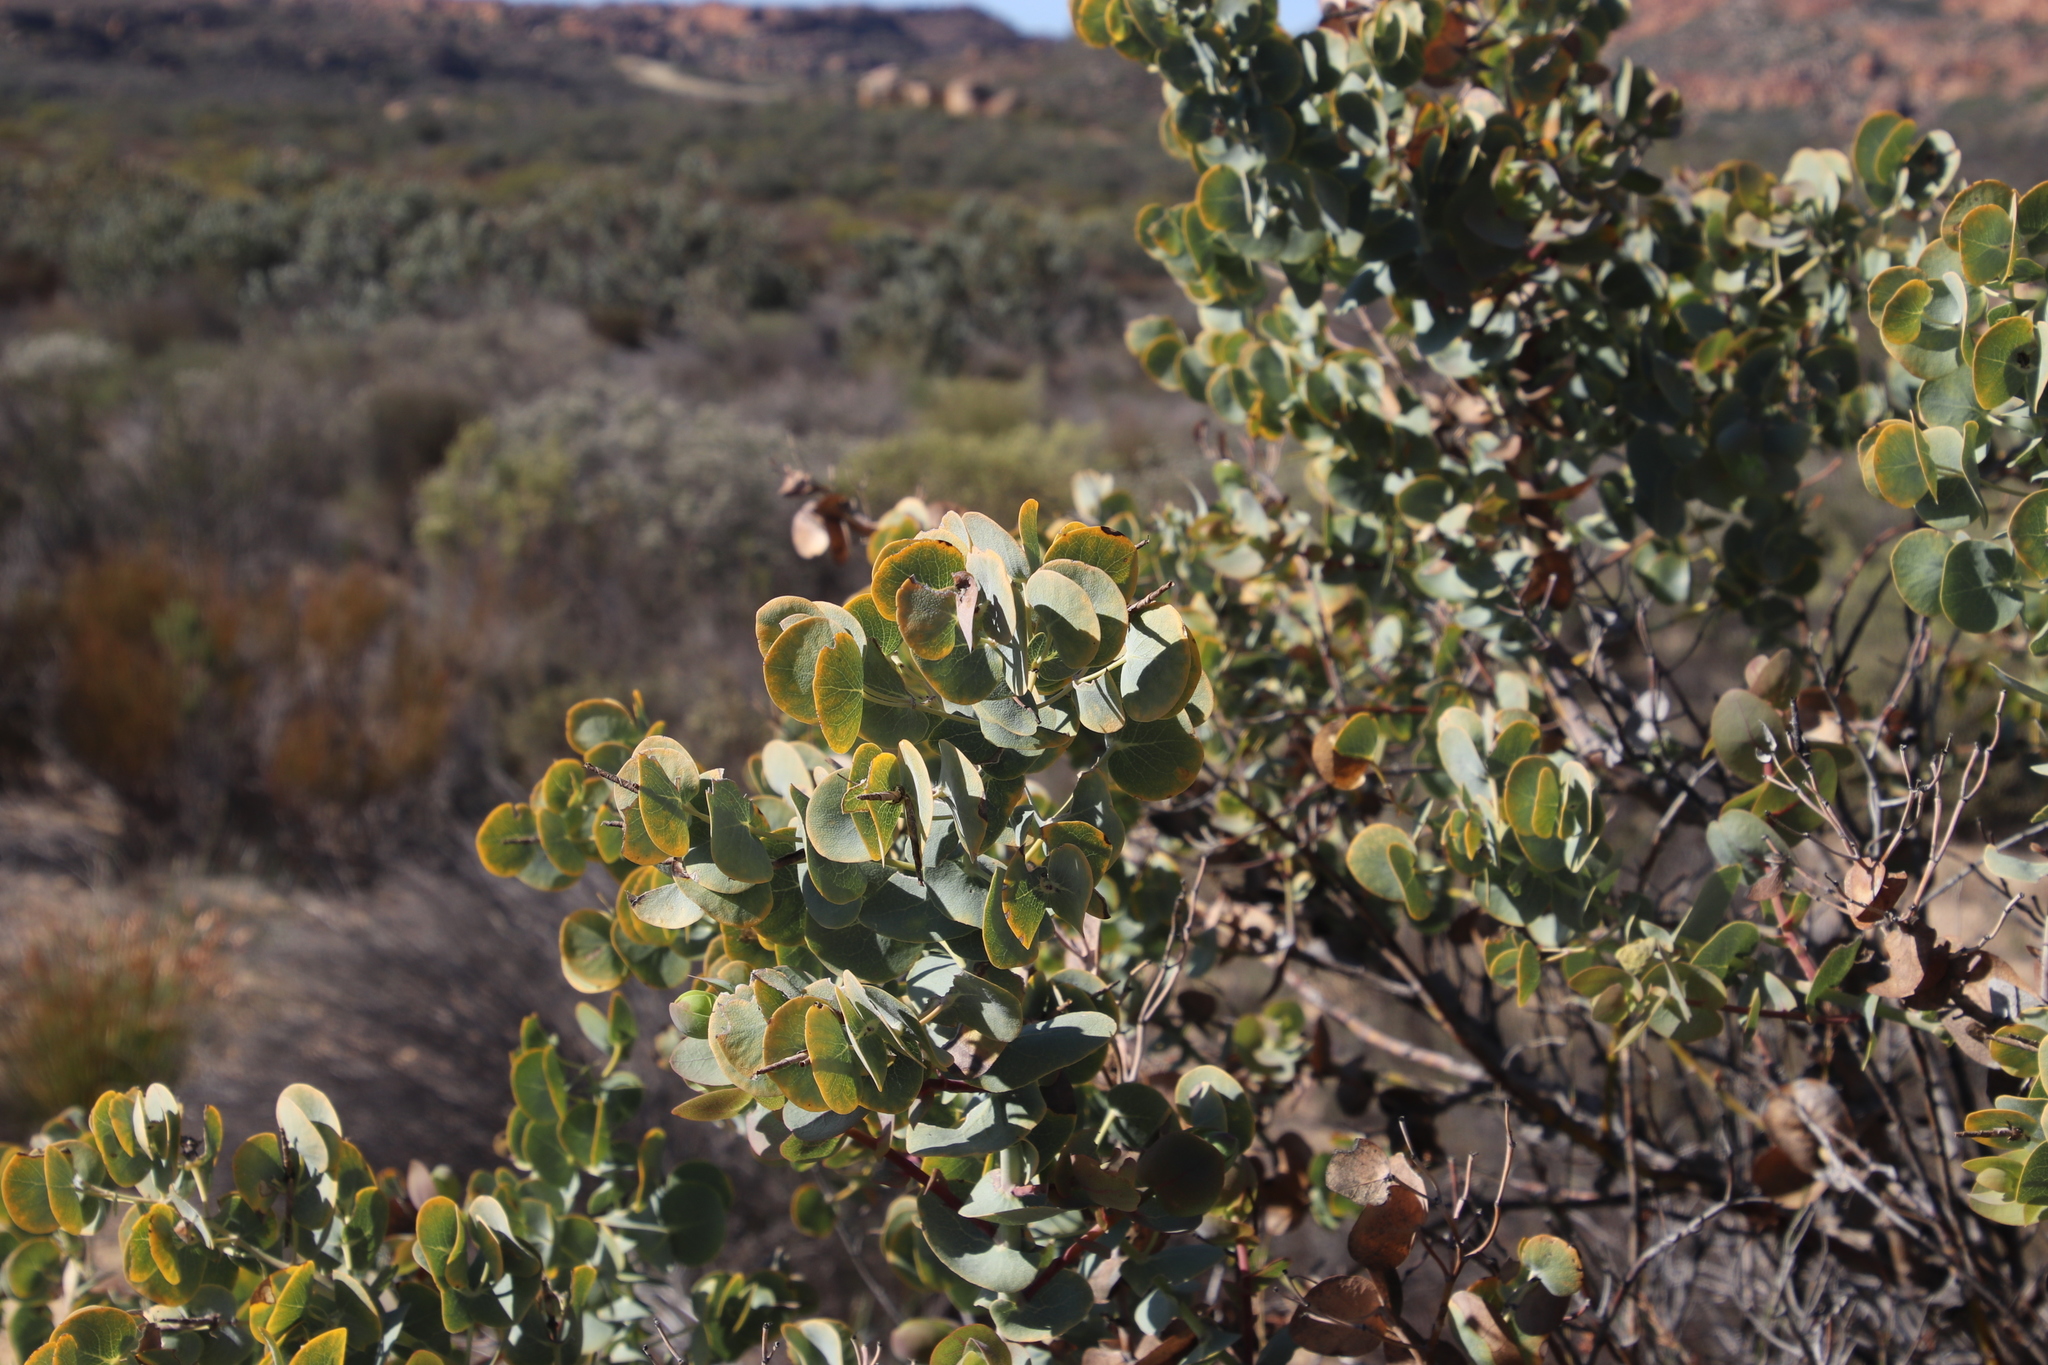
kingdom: Plantae
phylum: Tracheophyta
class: Magnoliopsida
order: Fabales
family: Fabaceae
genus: Rafnia
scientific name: Rafnia amplexicaulis
